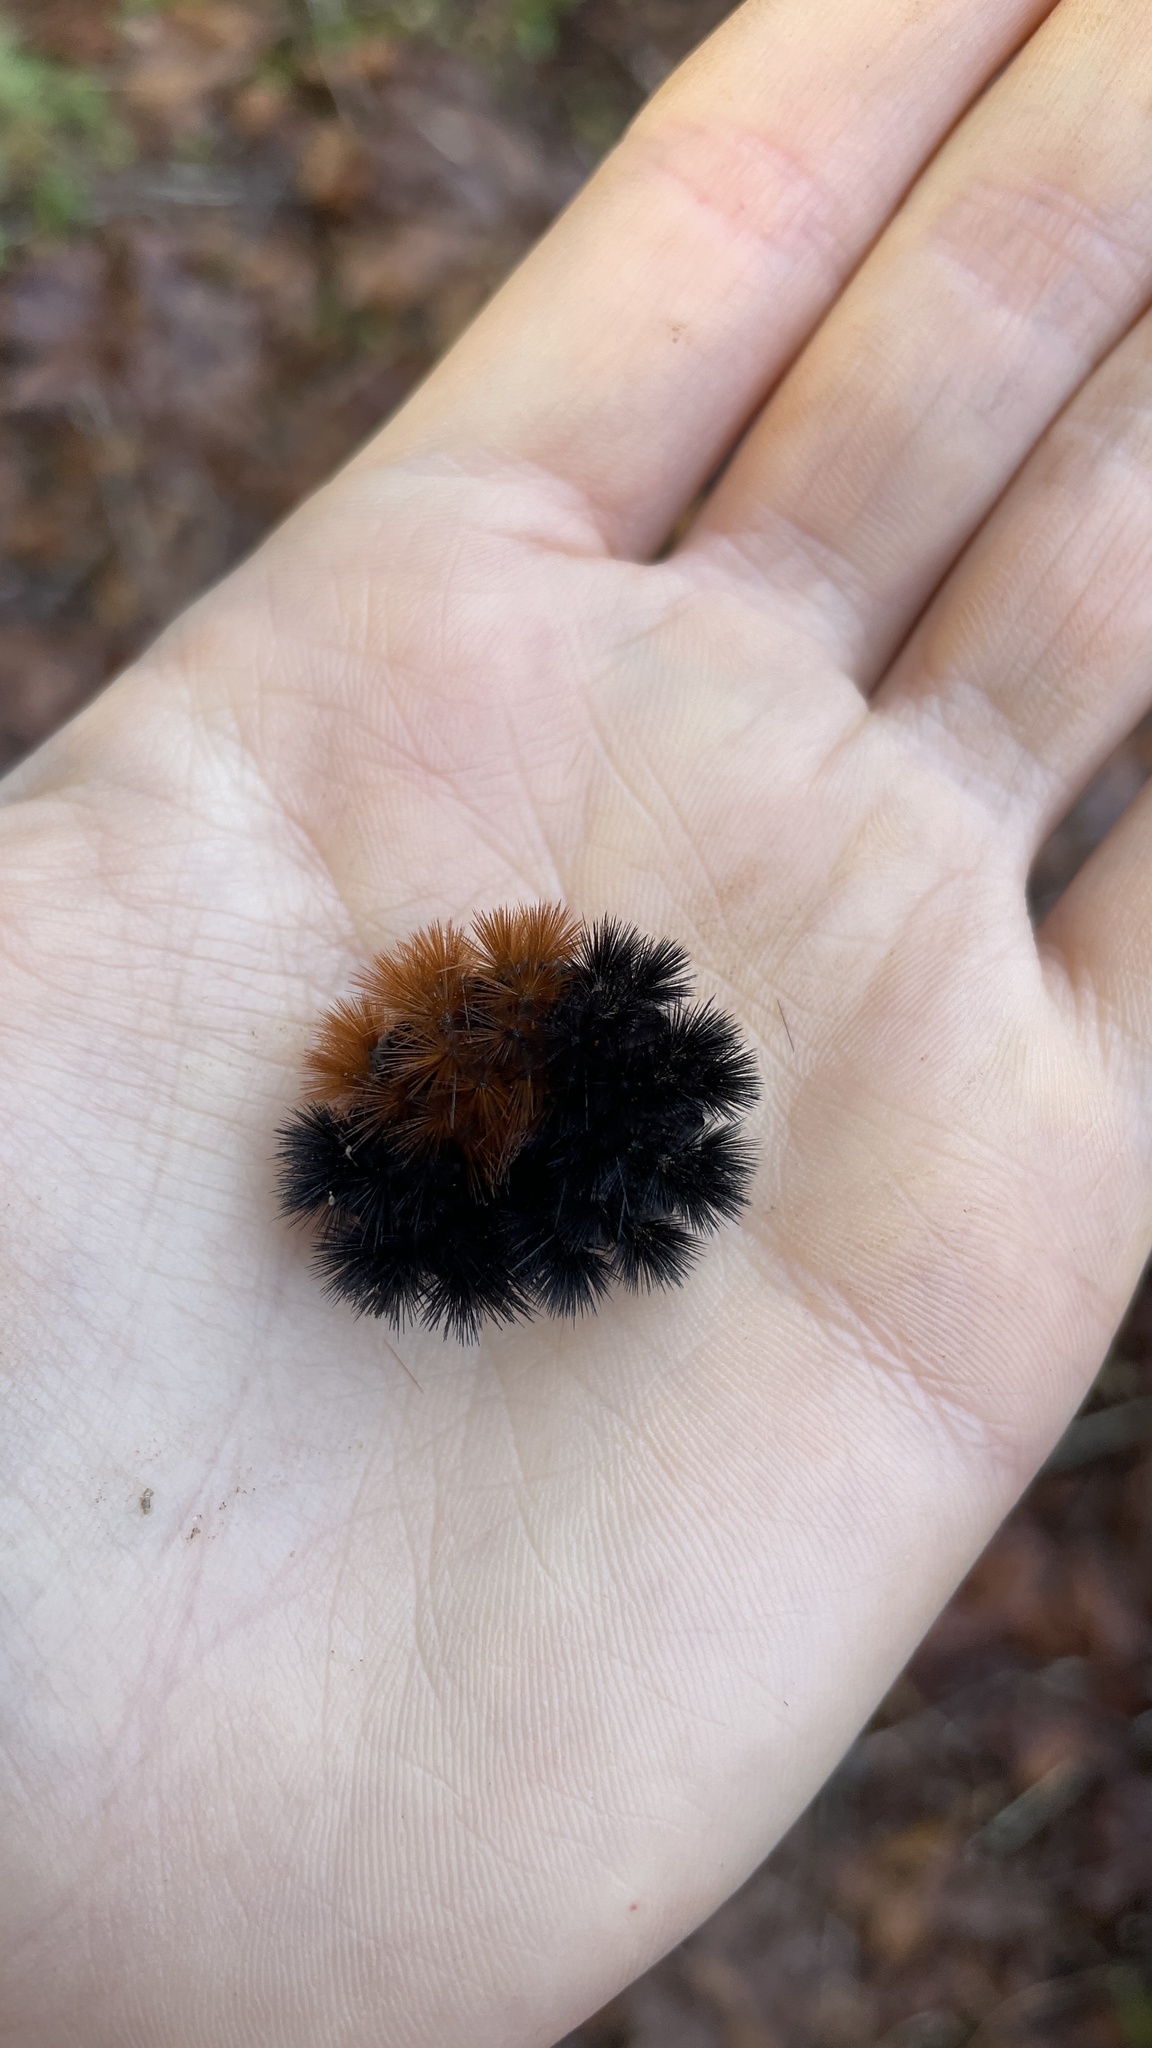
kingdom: Animalia
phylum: Arthropoda
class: Insecta
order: Lepidoptera
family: Erebidae
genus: Pyrrharctia
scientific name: Pyrrharctia isabella
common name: Isabella tiger moth
